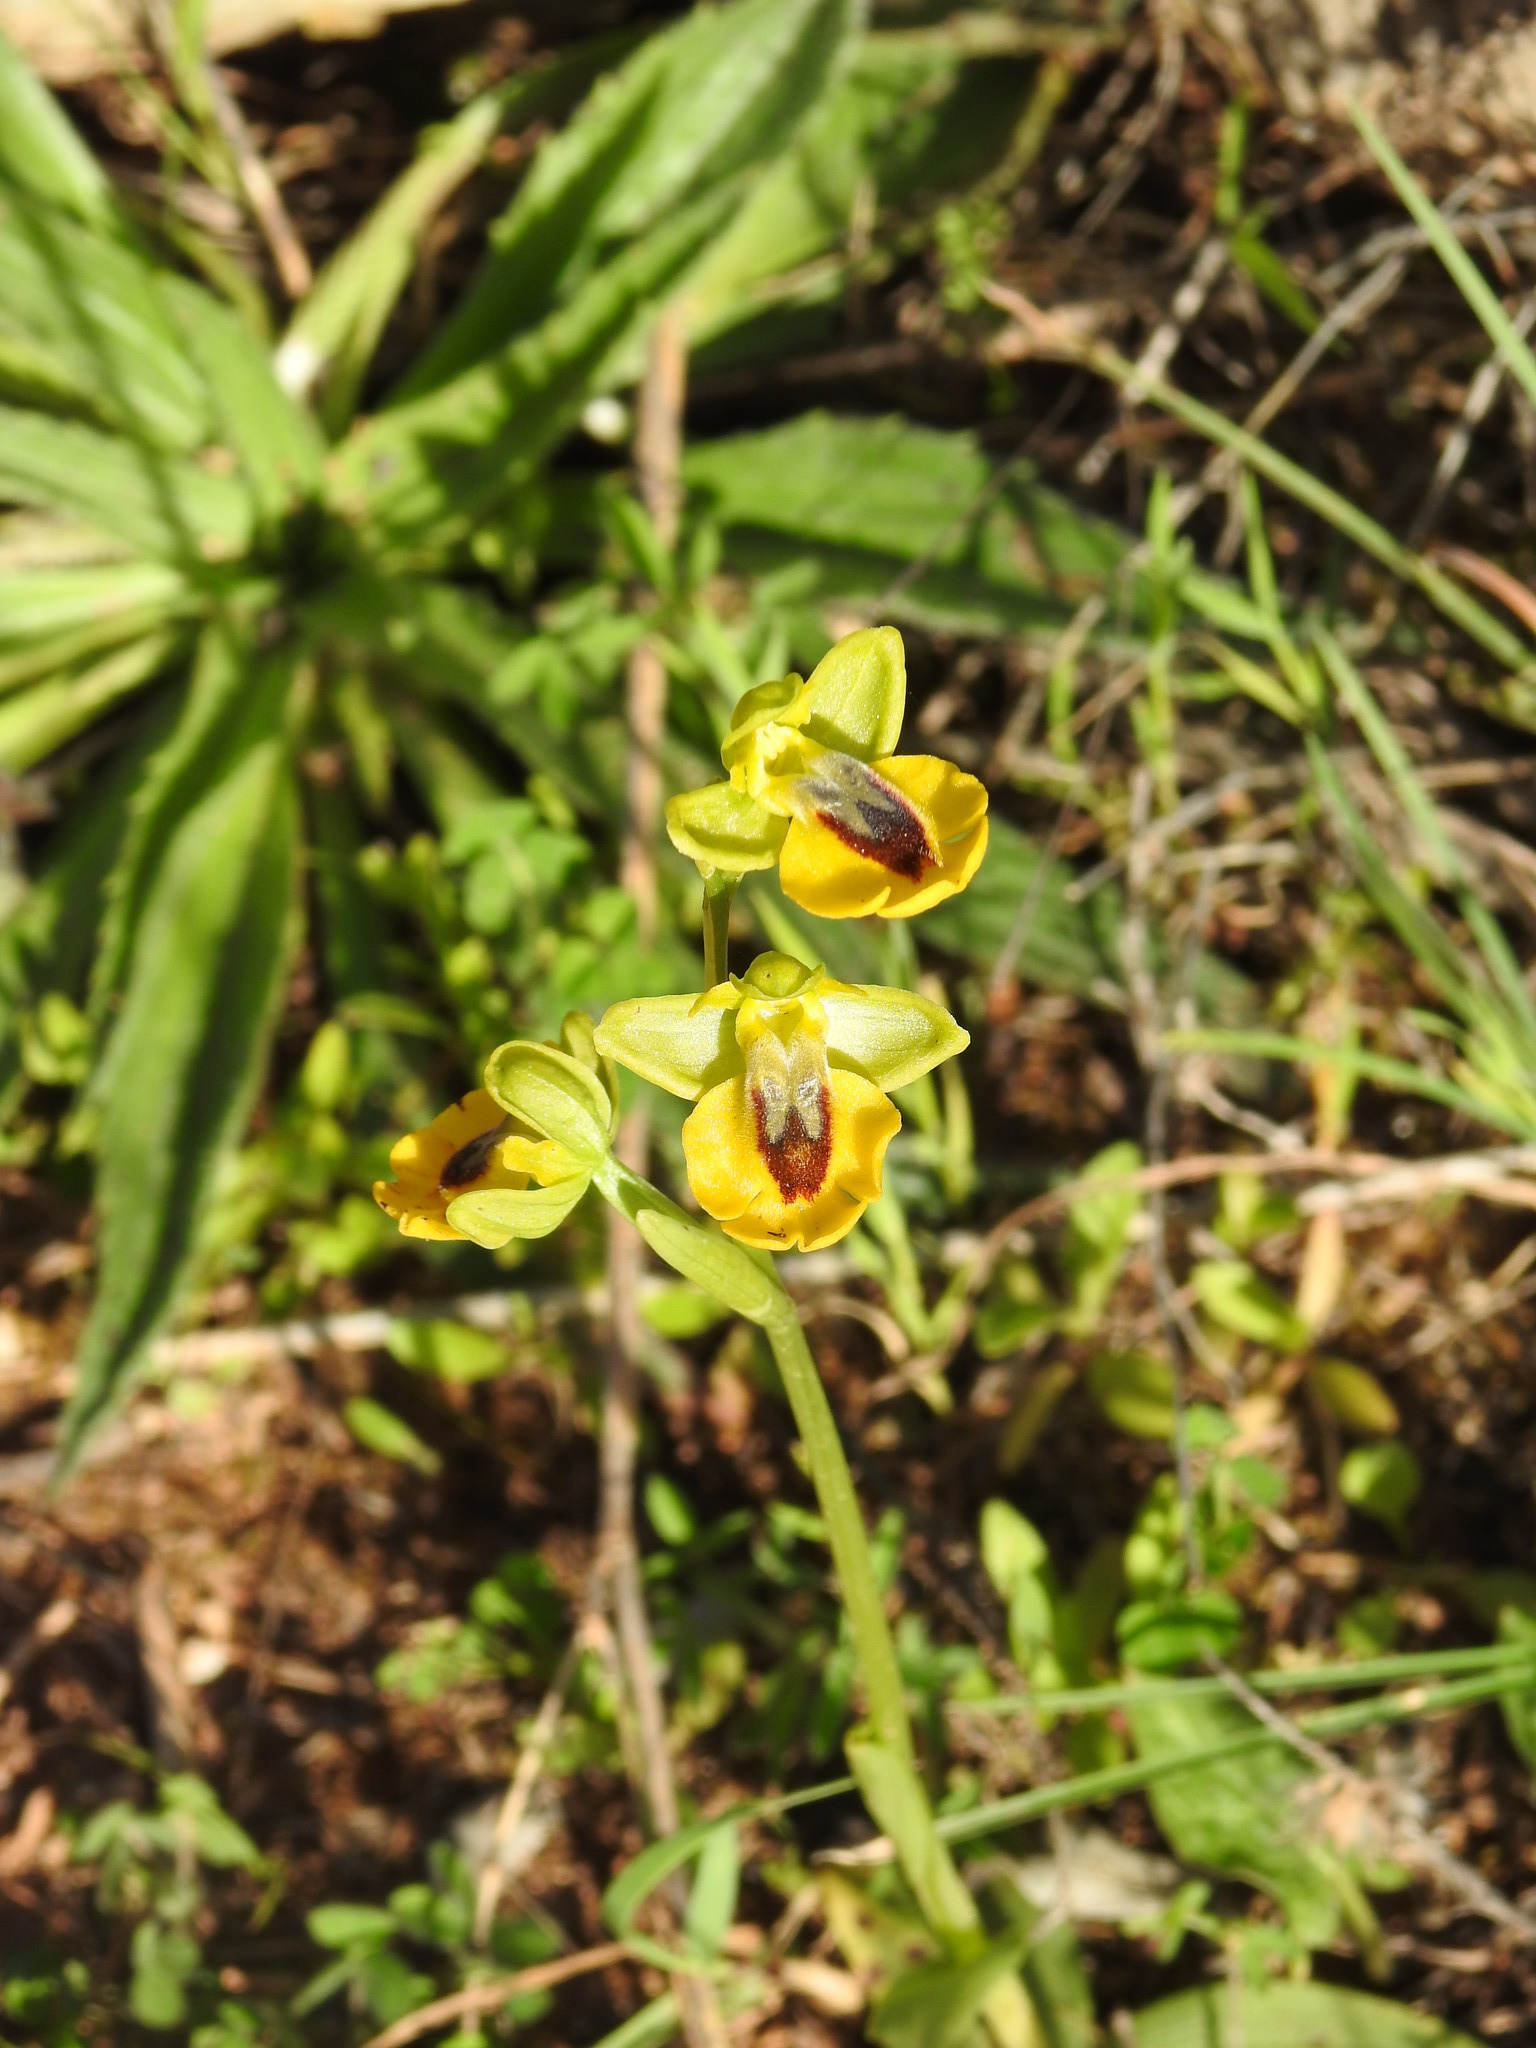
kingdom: Plantae
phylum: Tracheophyta
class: Liliopsida
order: Asparagales
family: Orchidaceae
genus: Ophrys
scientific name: Ophrys lutea
